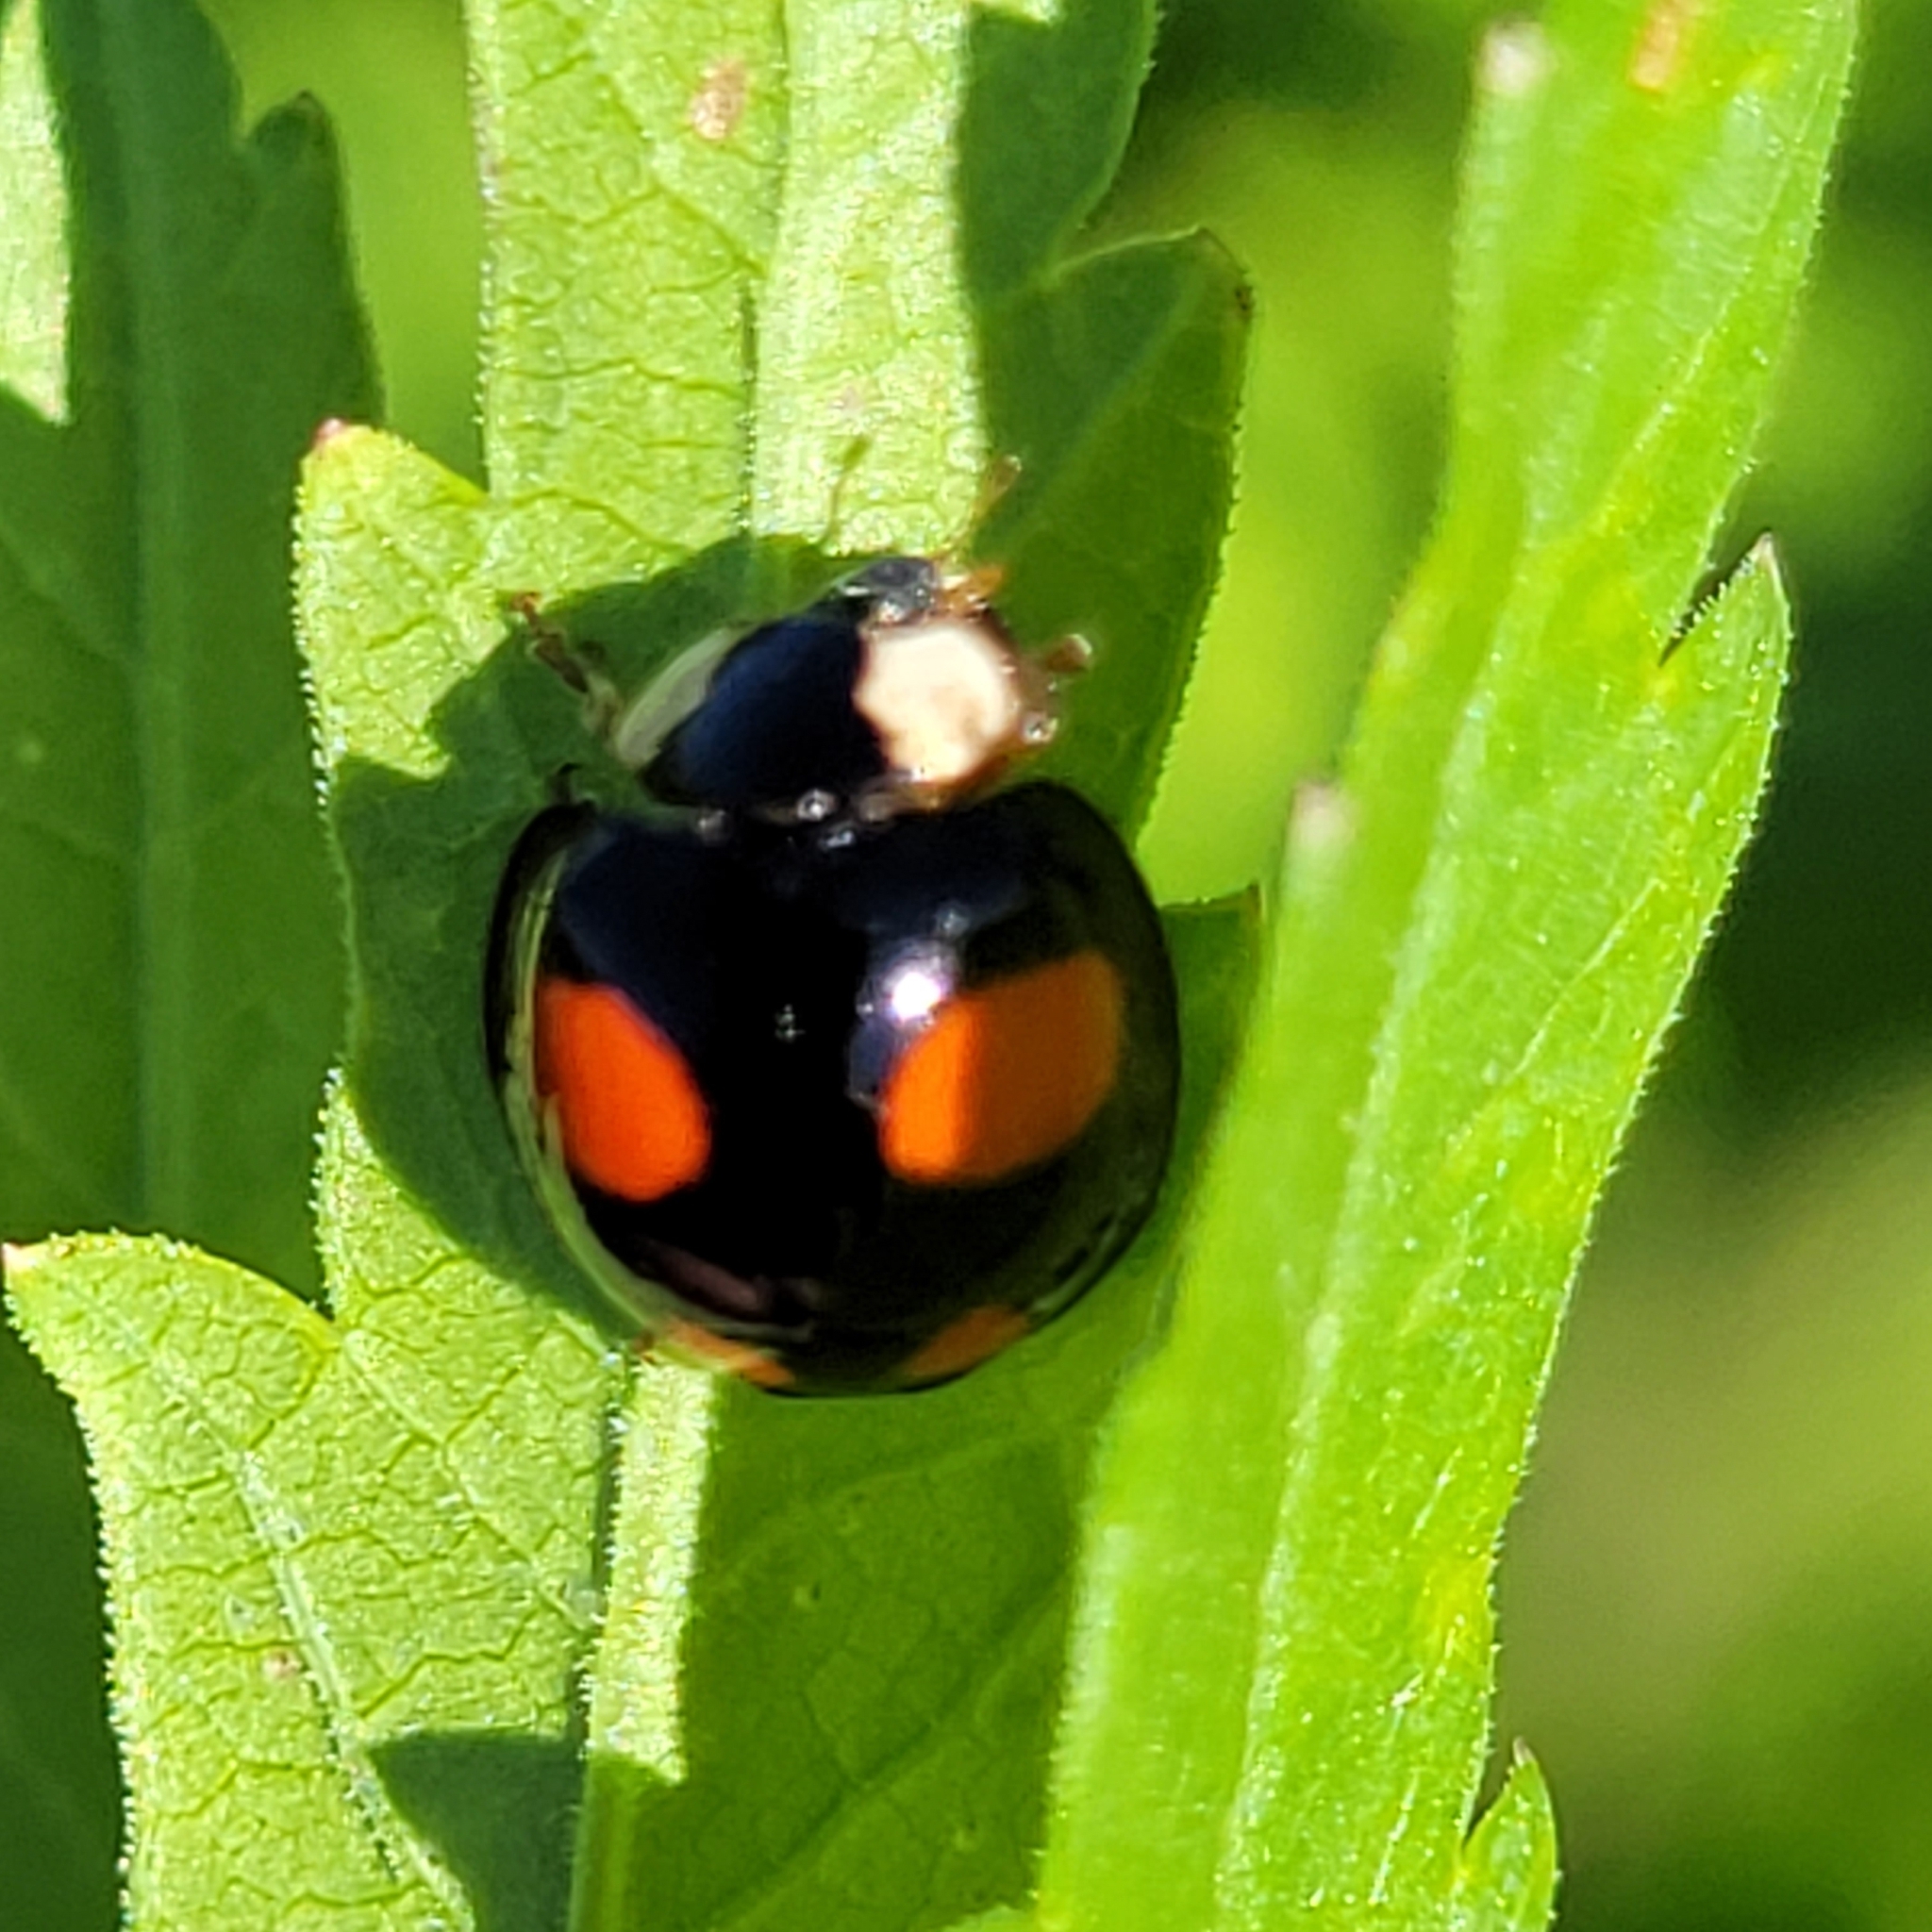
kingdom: Animalia
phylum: Arthropoda
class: Insecta
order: Coleoptera
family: Coccinellidae
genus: Harmonia
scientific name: Harmonia axyridis
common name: Harlequin ladybird
